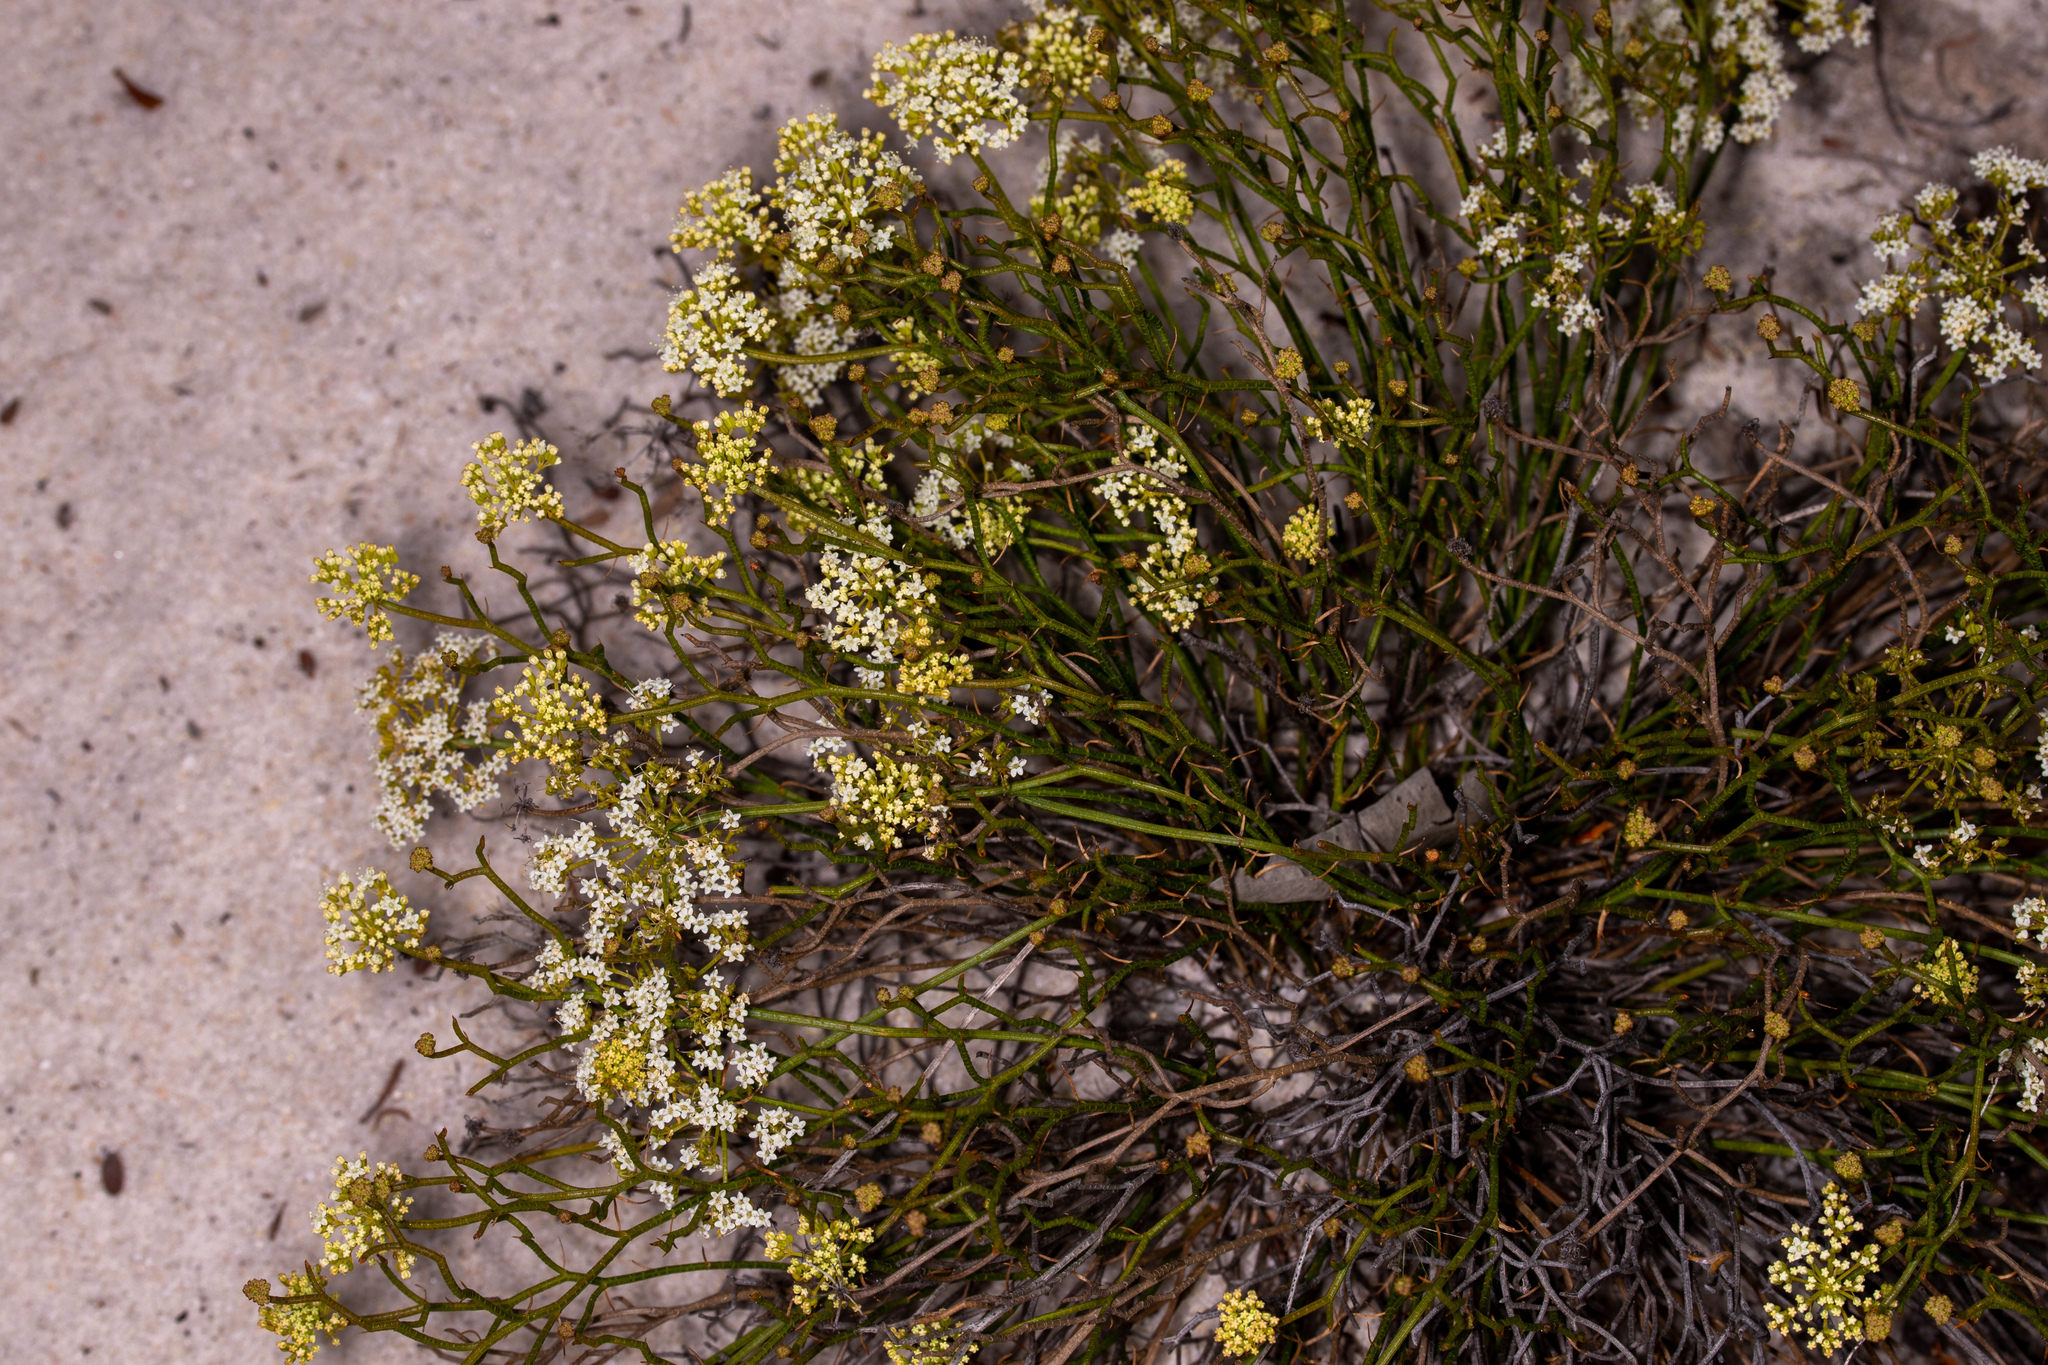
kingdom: Plantae
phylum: Tracheophyta
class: Magnoliopsida
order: Apiales
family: Apiaceae
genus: Platysace
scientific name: Platysace xerophila
